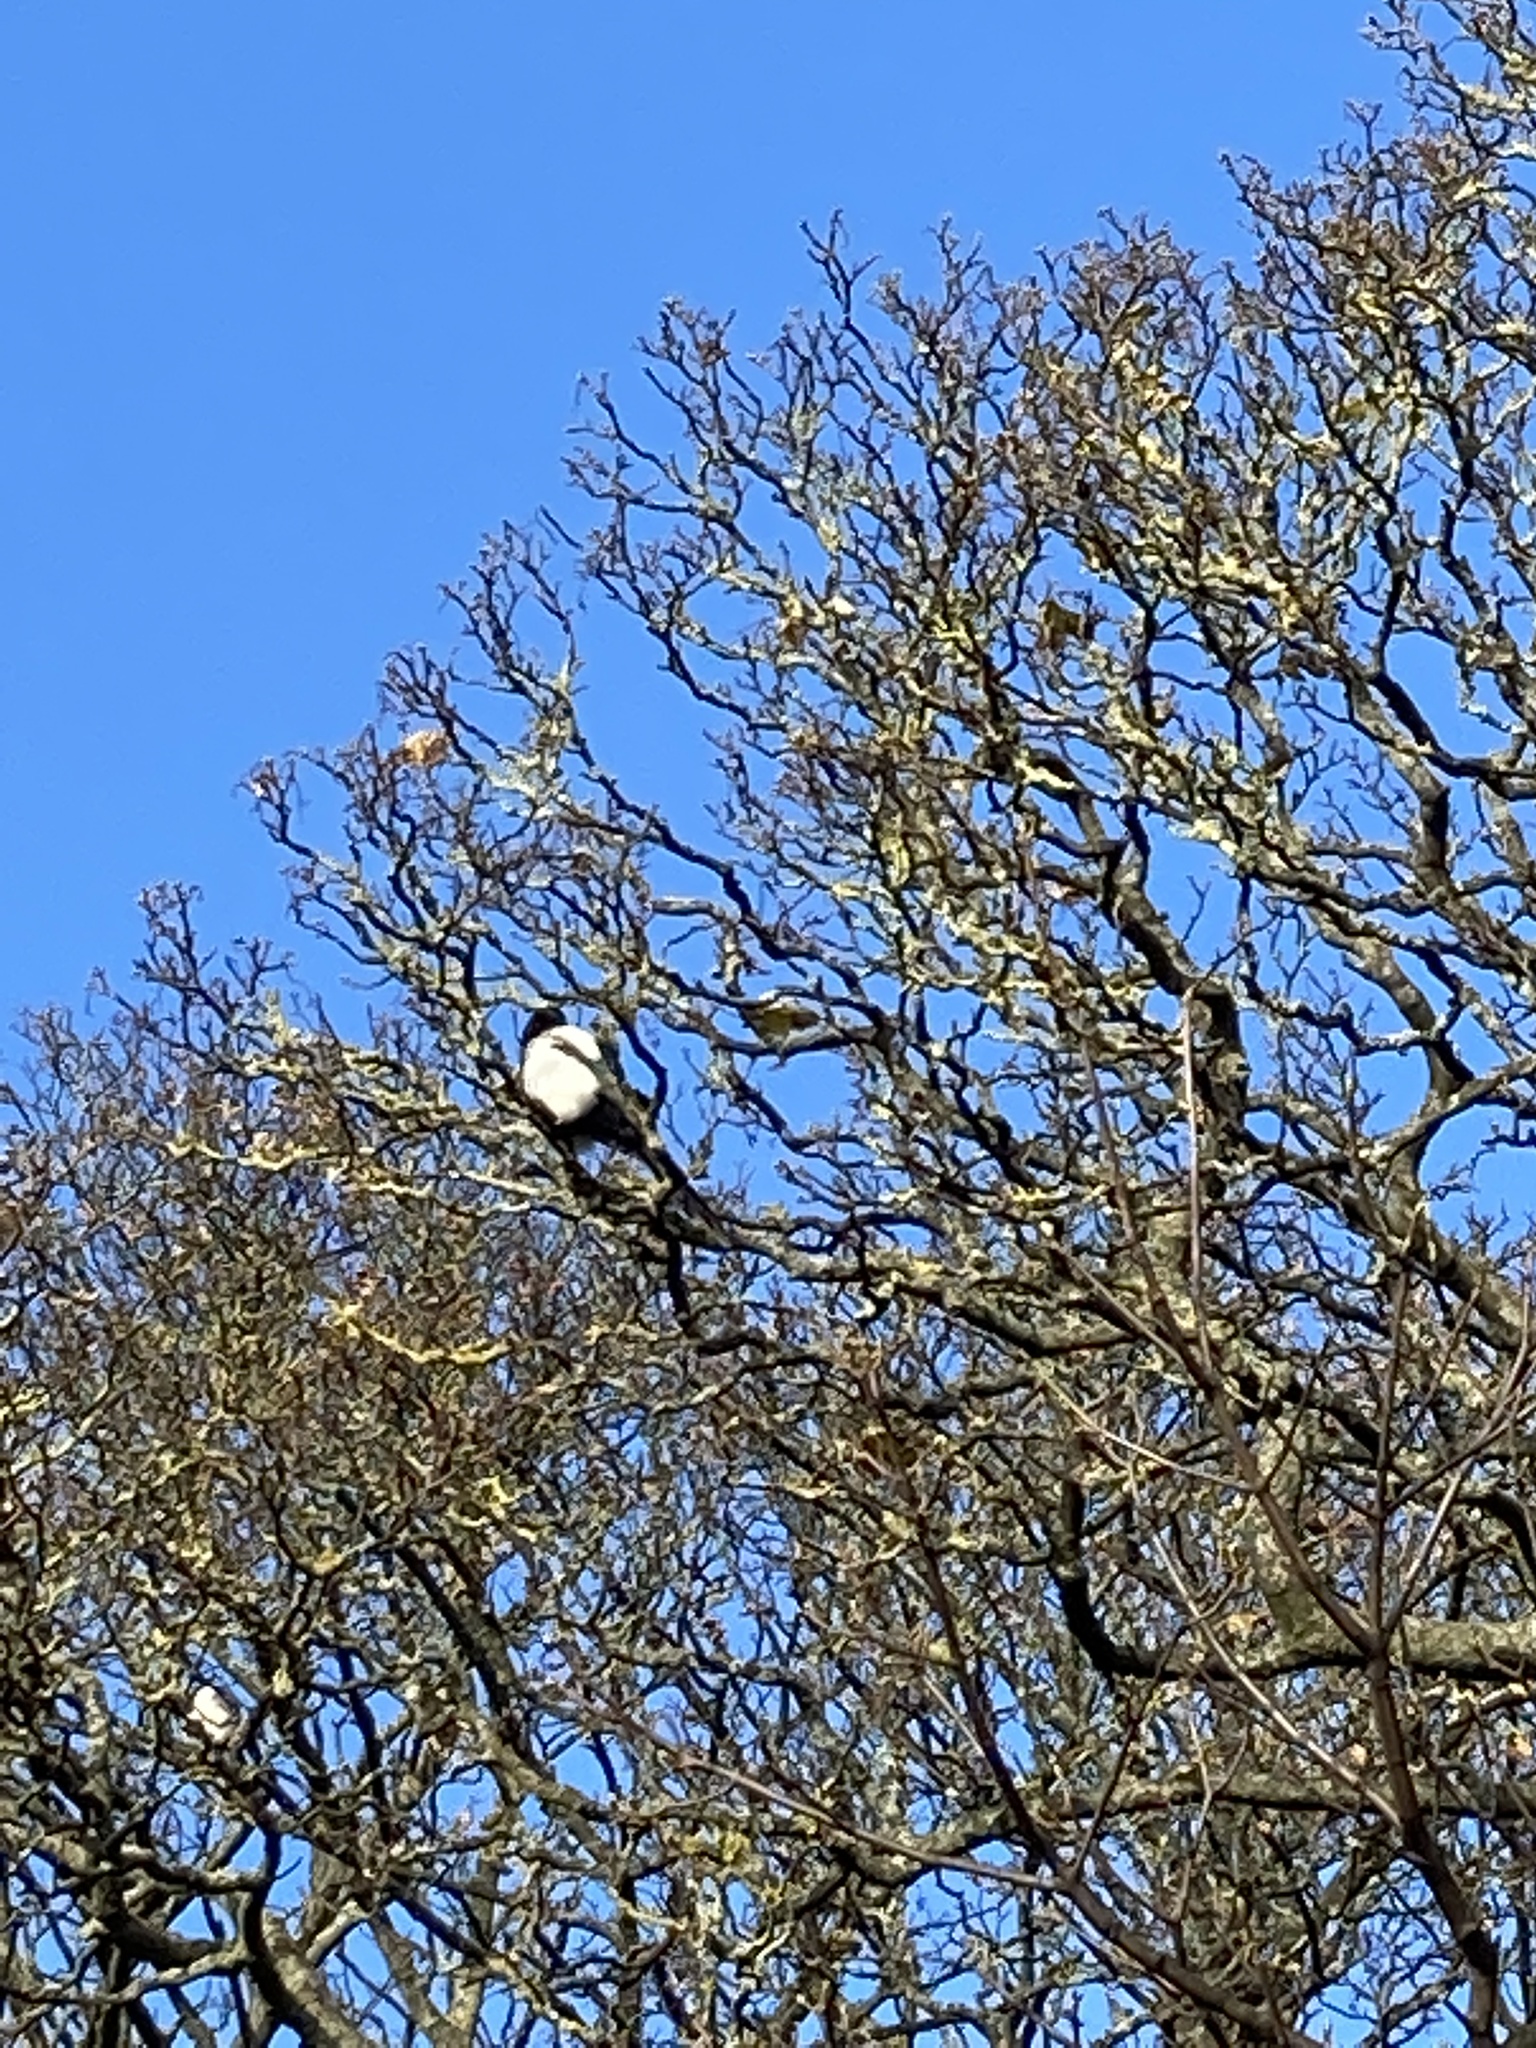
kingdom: Animalia
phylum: Chordata
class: Aves
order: Passeriformes
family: Corvidae
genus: Pica
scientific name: Pica pica
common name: Eurasian magpie
